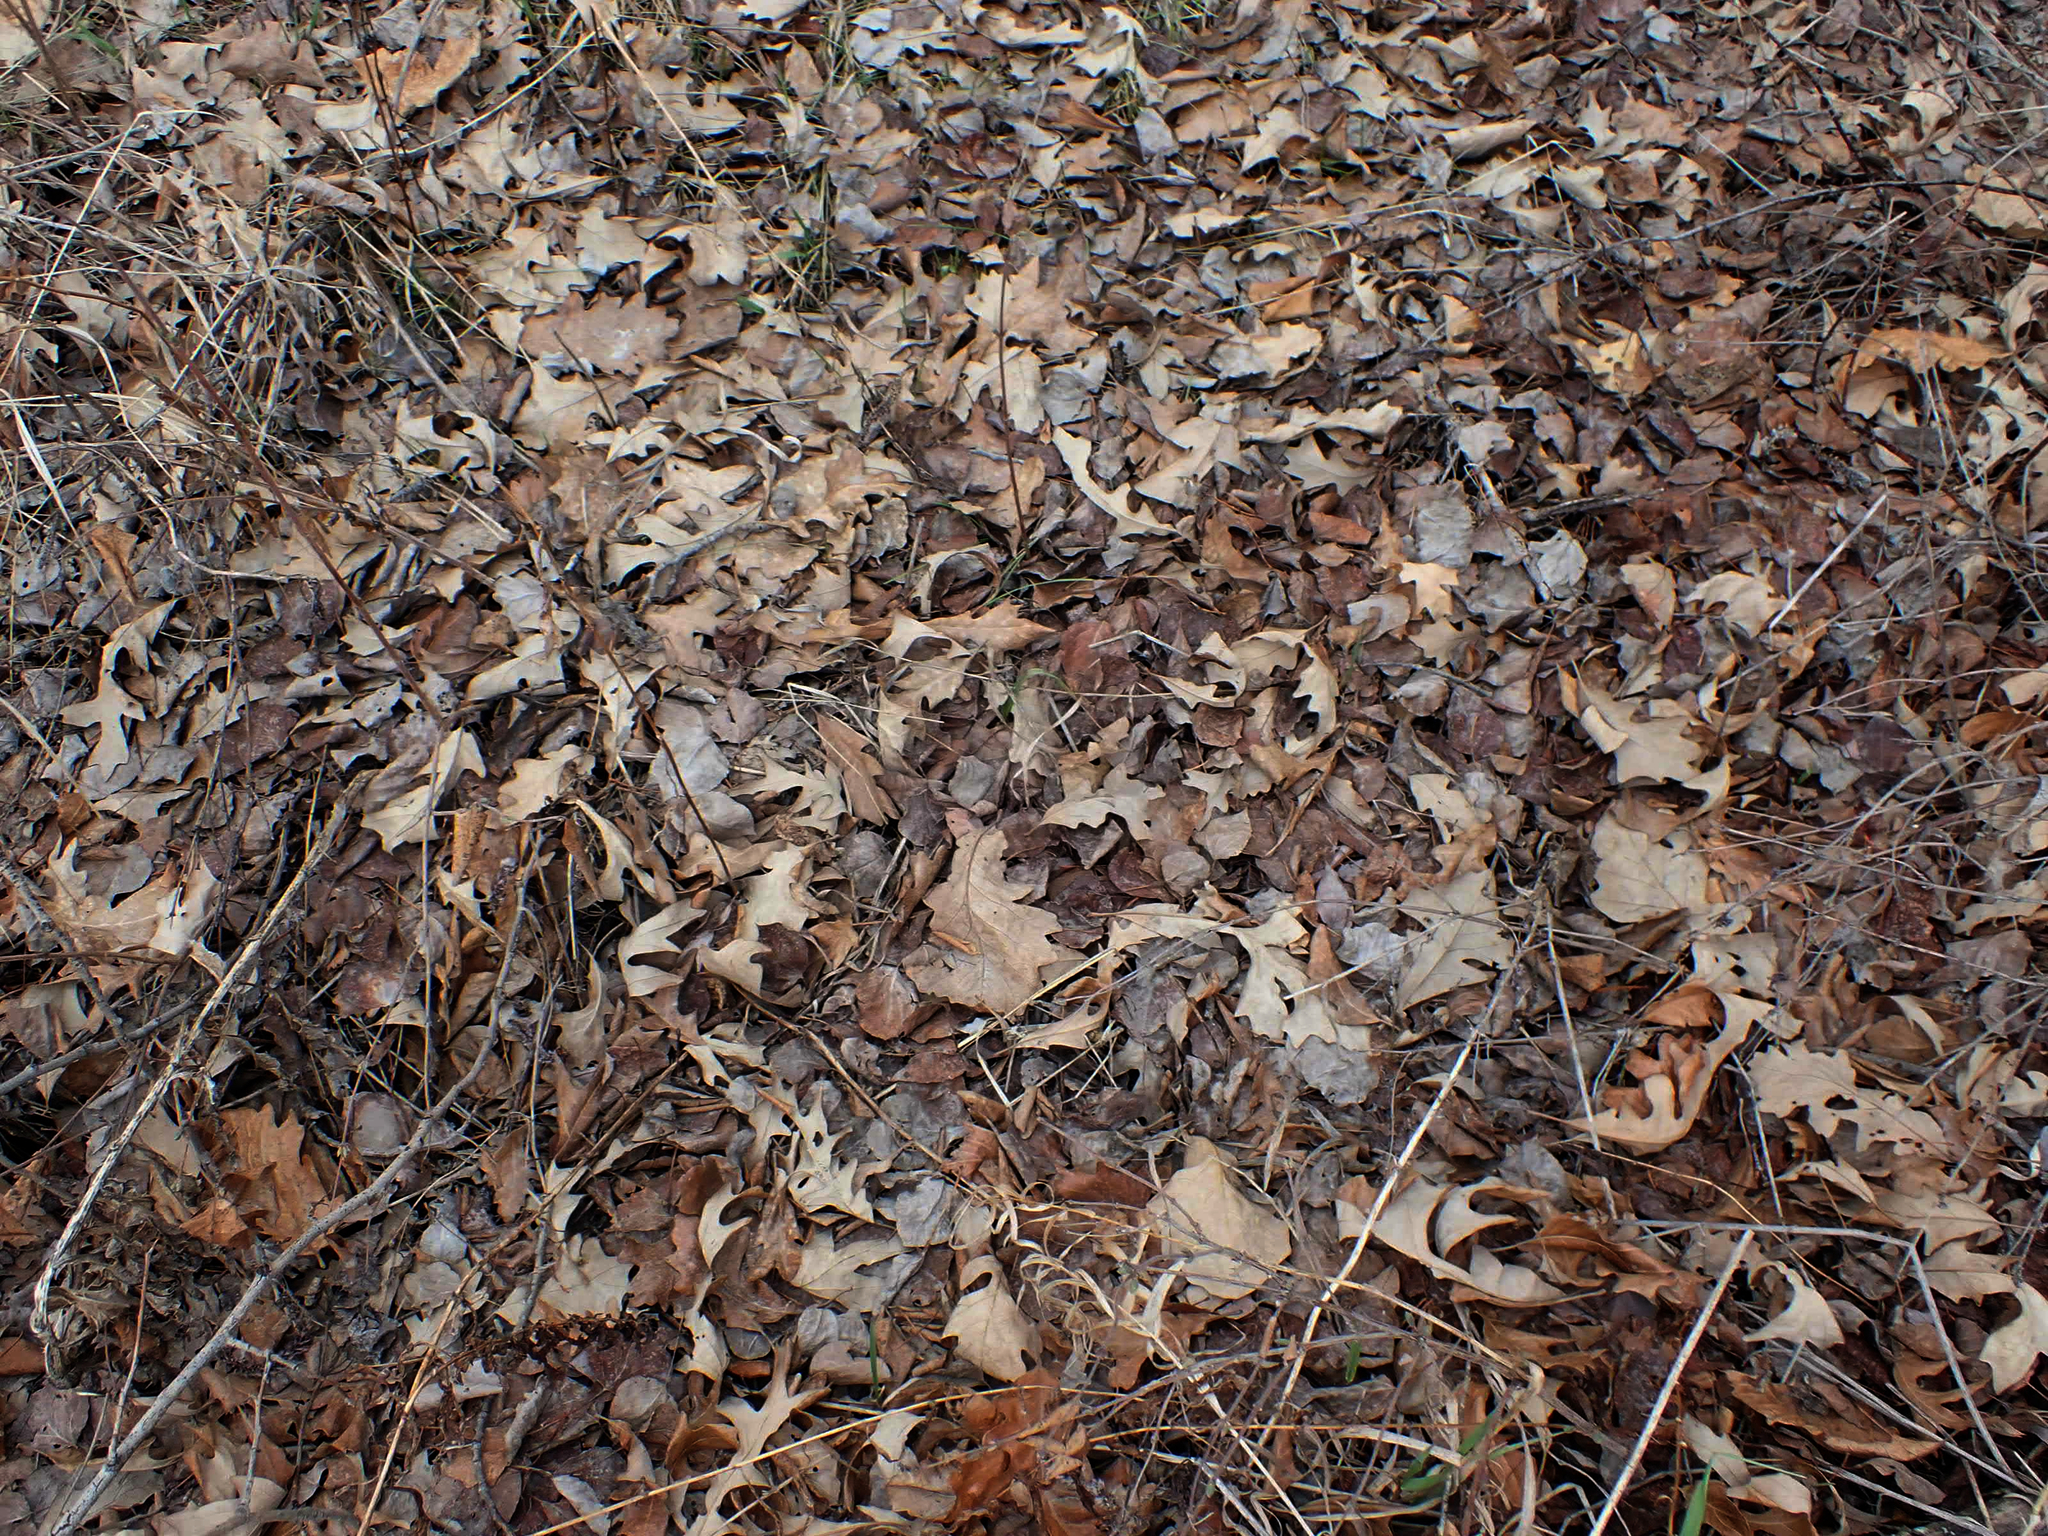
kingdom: Plantae
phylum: Tracheophyta
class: Magnoliopsida
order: Fagales
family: Fagaceae
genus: Quercus
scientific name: Quercus macrocarpa
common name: Bur oak
